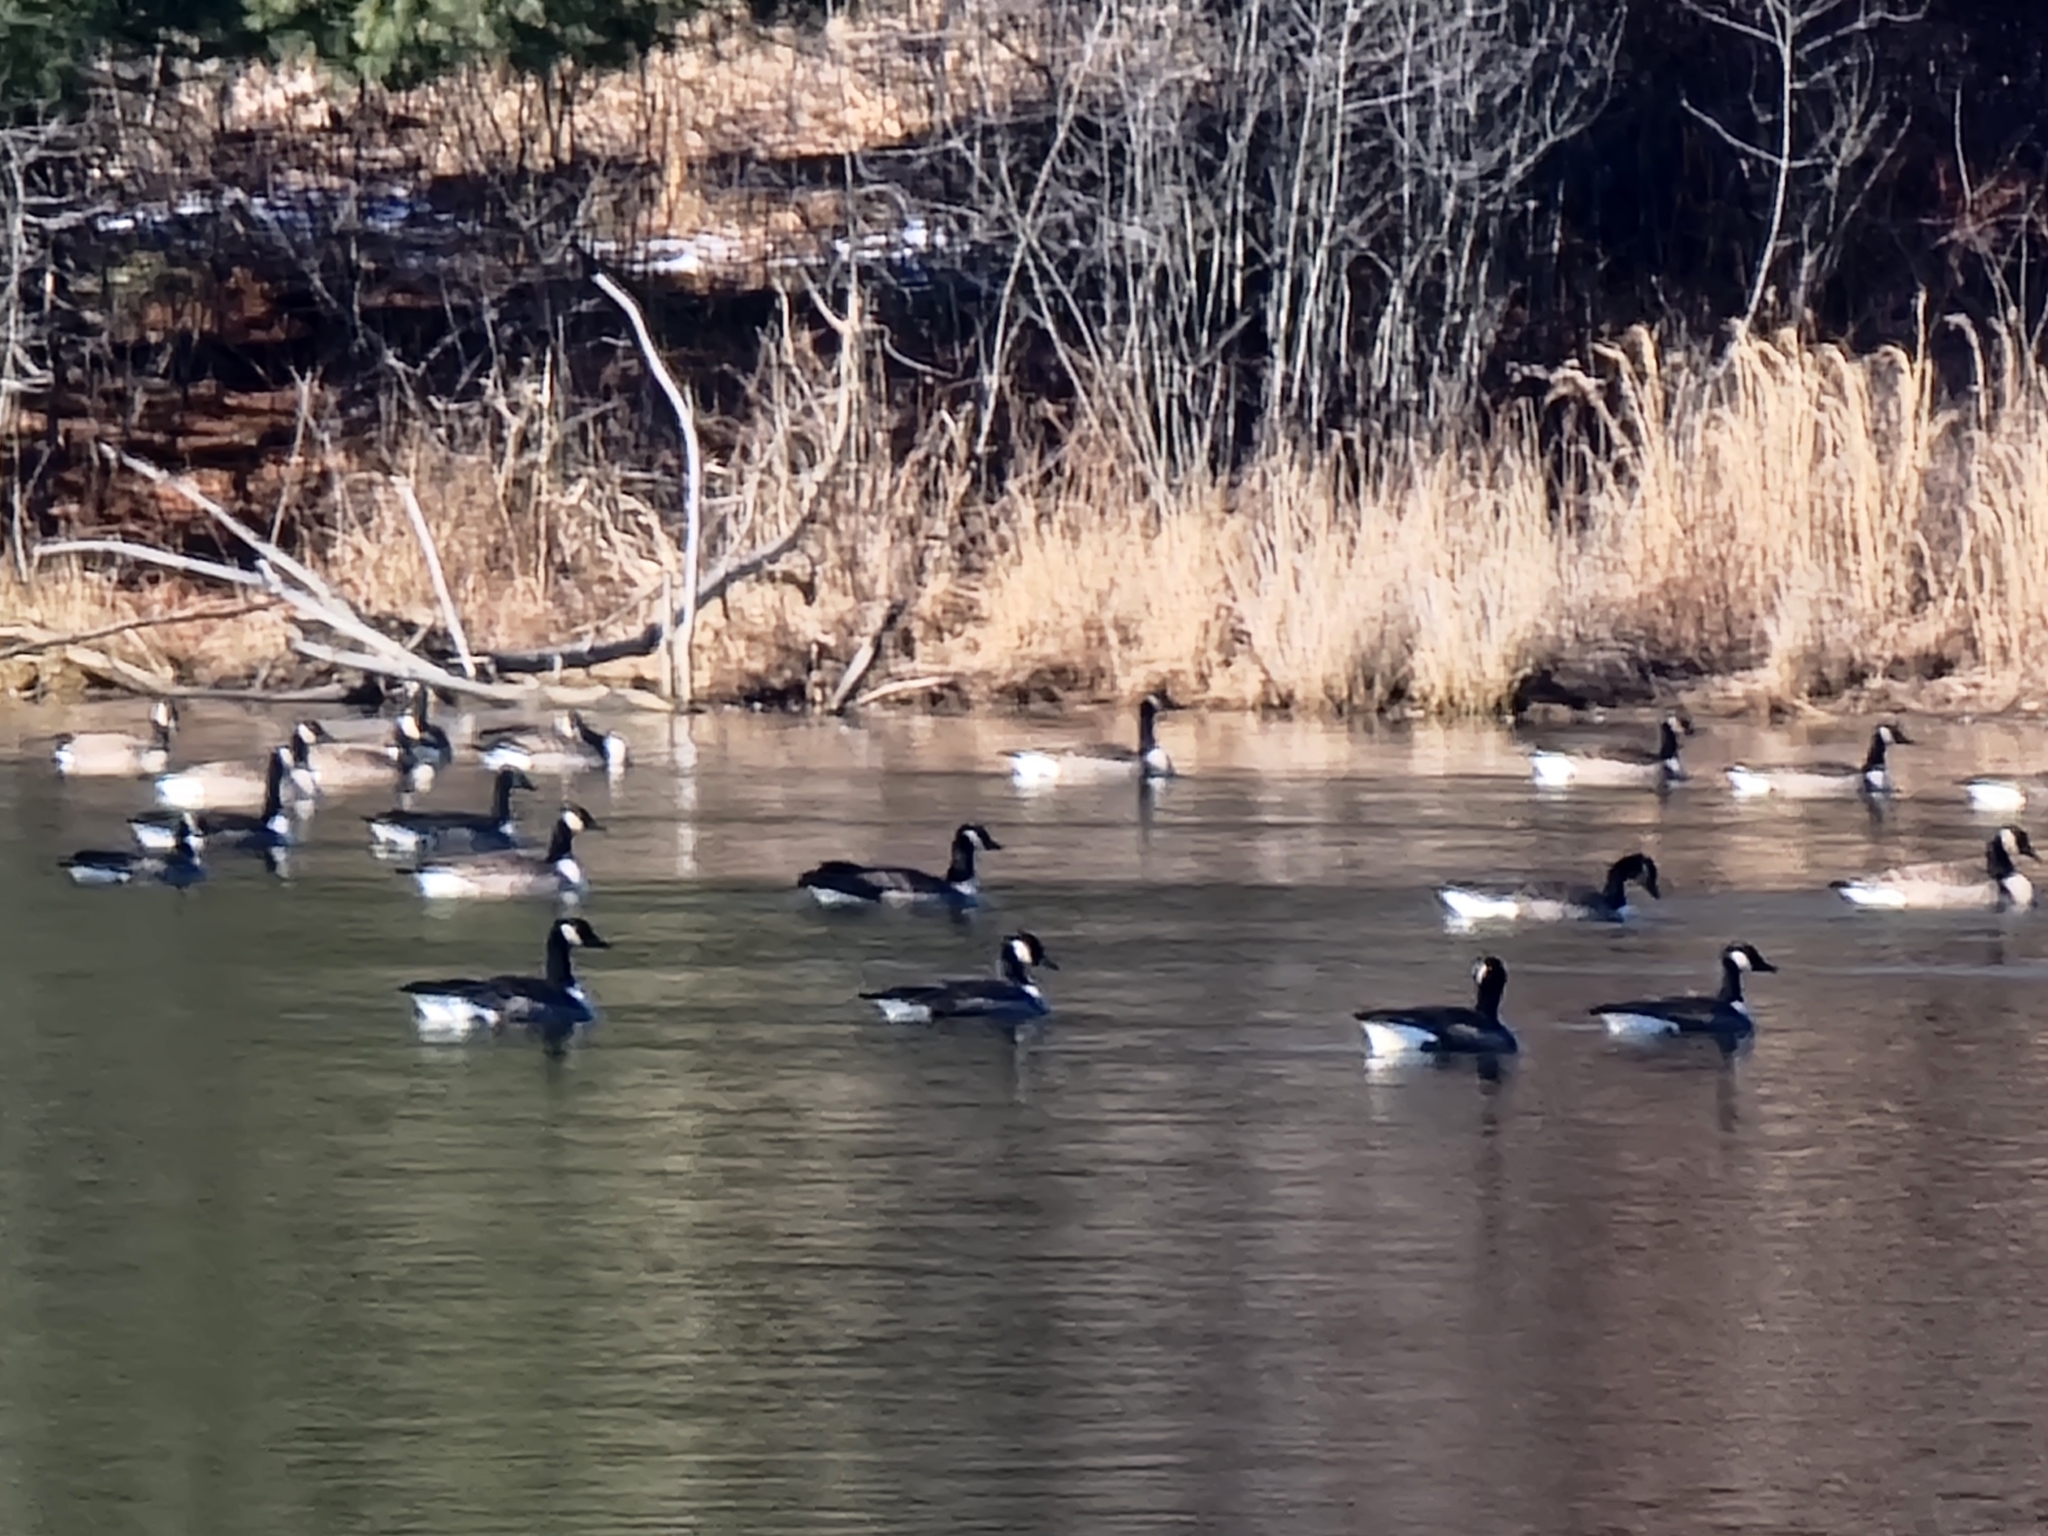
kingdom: Animalia
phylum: Chordata
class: Aves
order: Anseriformes
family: Anatidae
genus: Branta
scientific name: Branta canadensis
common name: Canada goose
